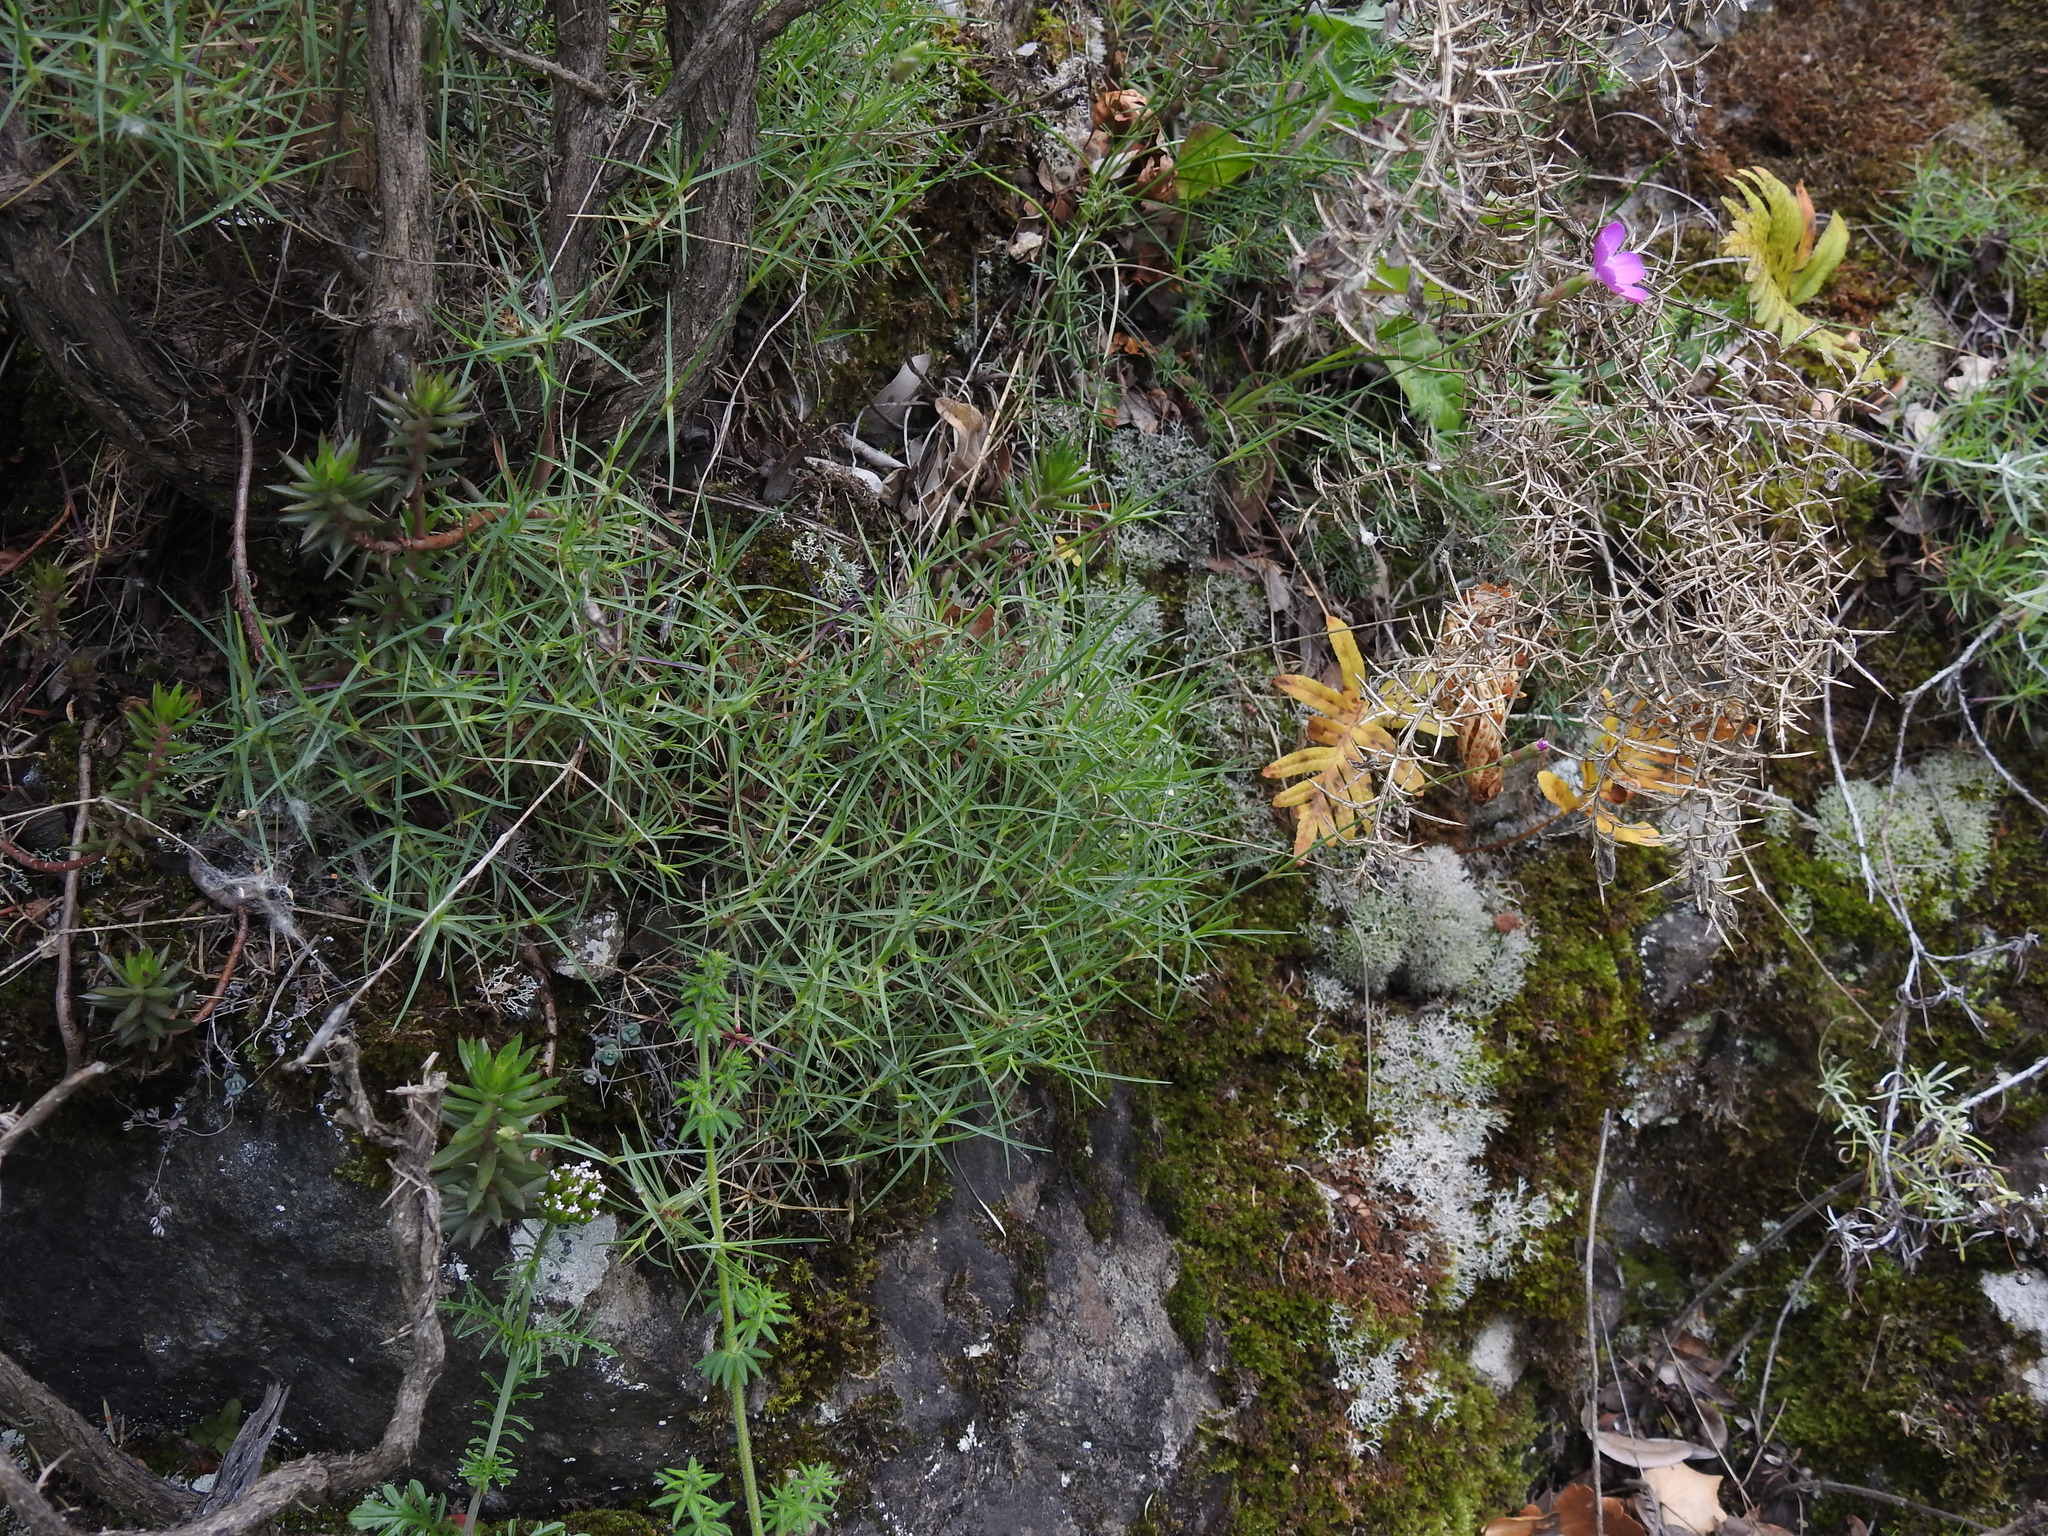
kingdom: Plantae
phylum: Tracheophyta
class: Magnoliopsida
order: Caryophyllales
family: Caryophyllaceae
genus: Dianthus
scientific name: Dianthus pungens
